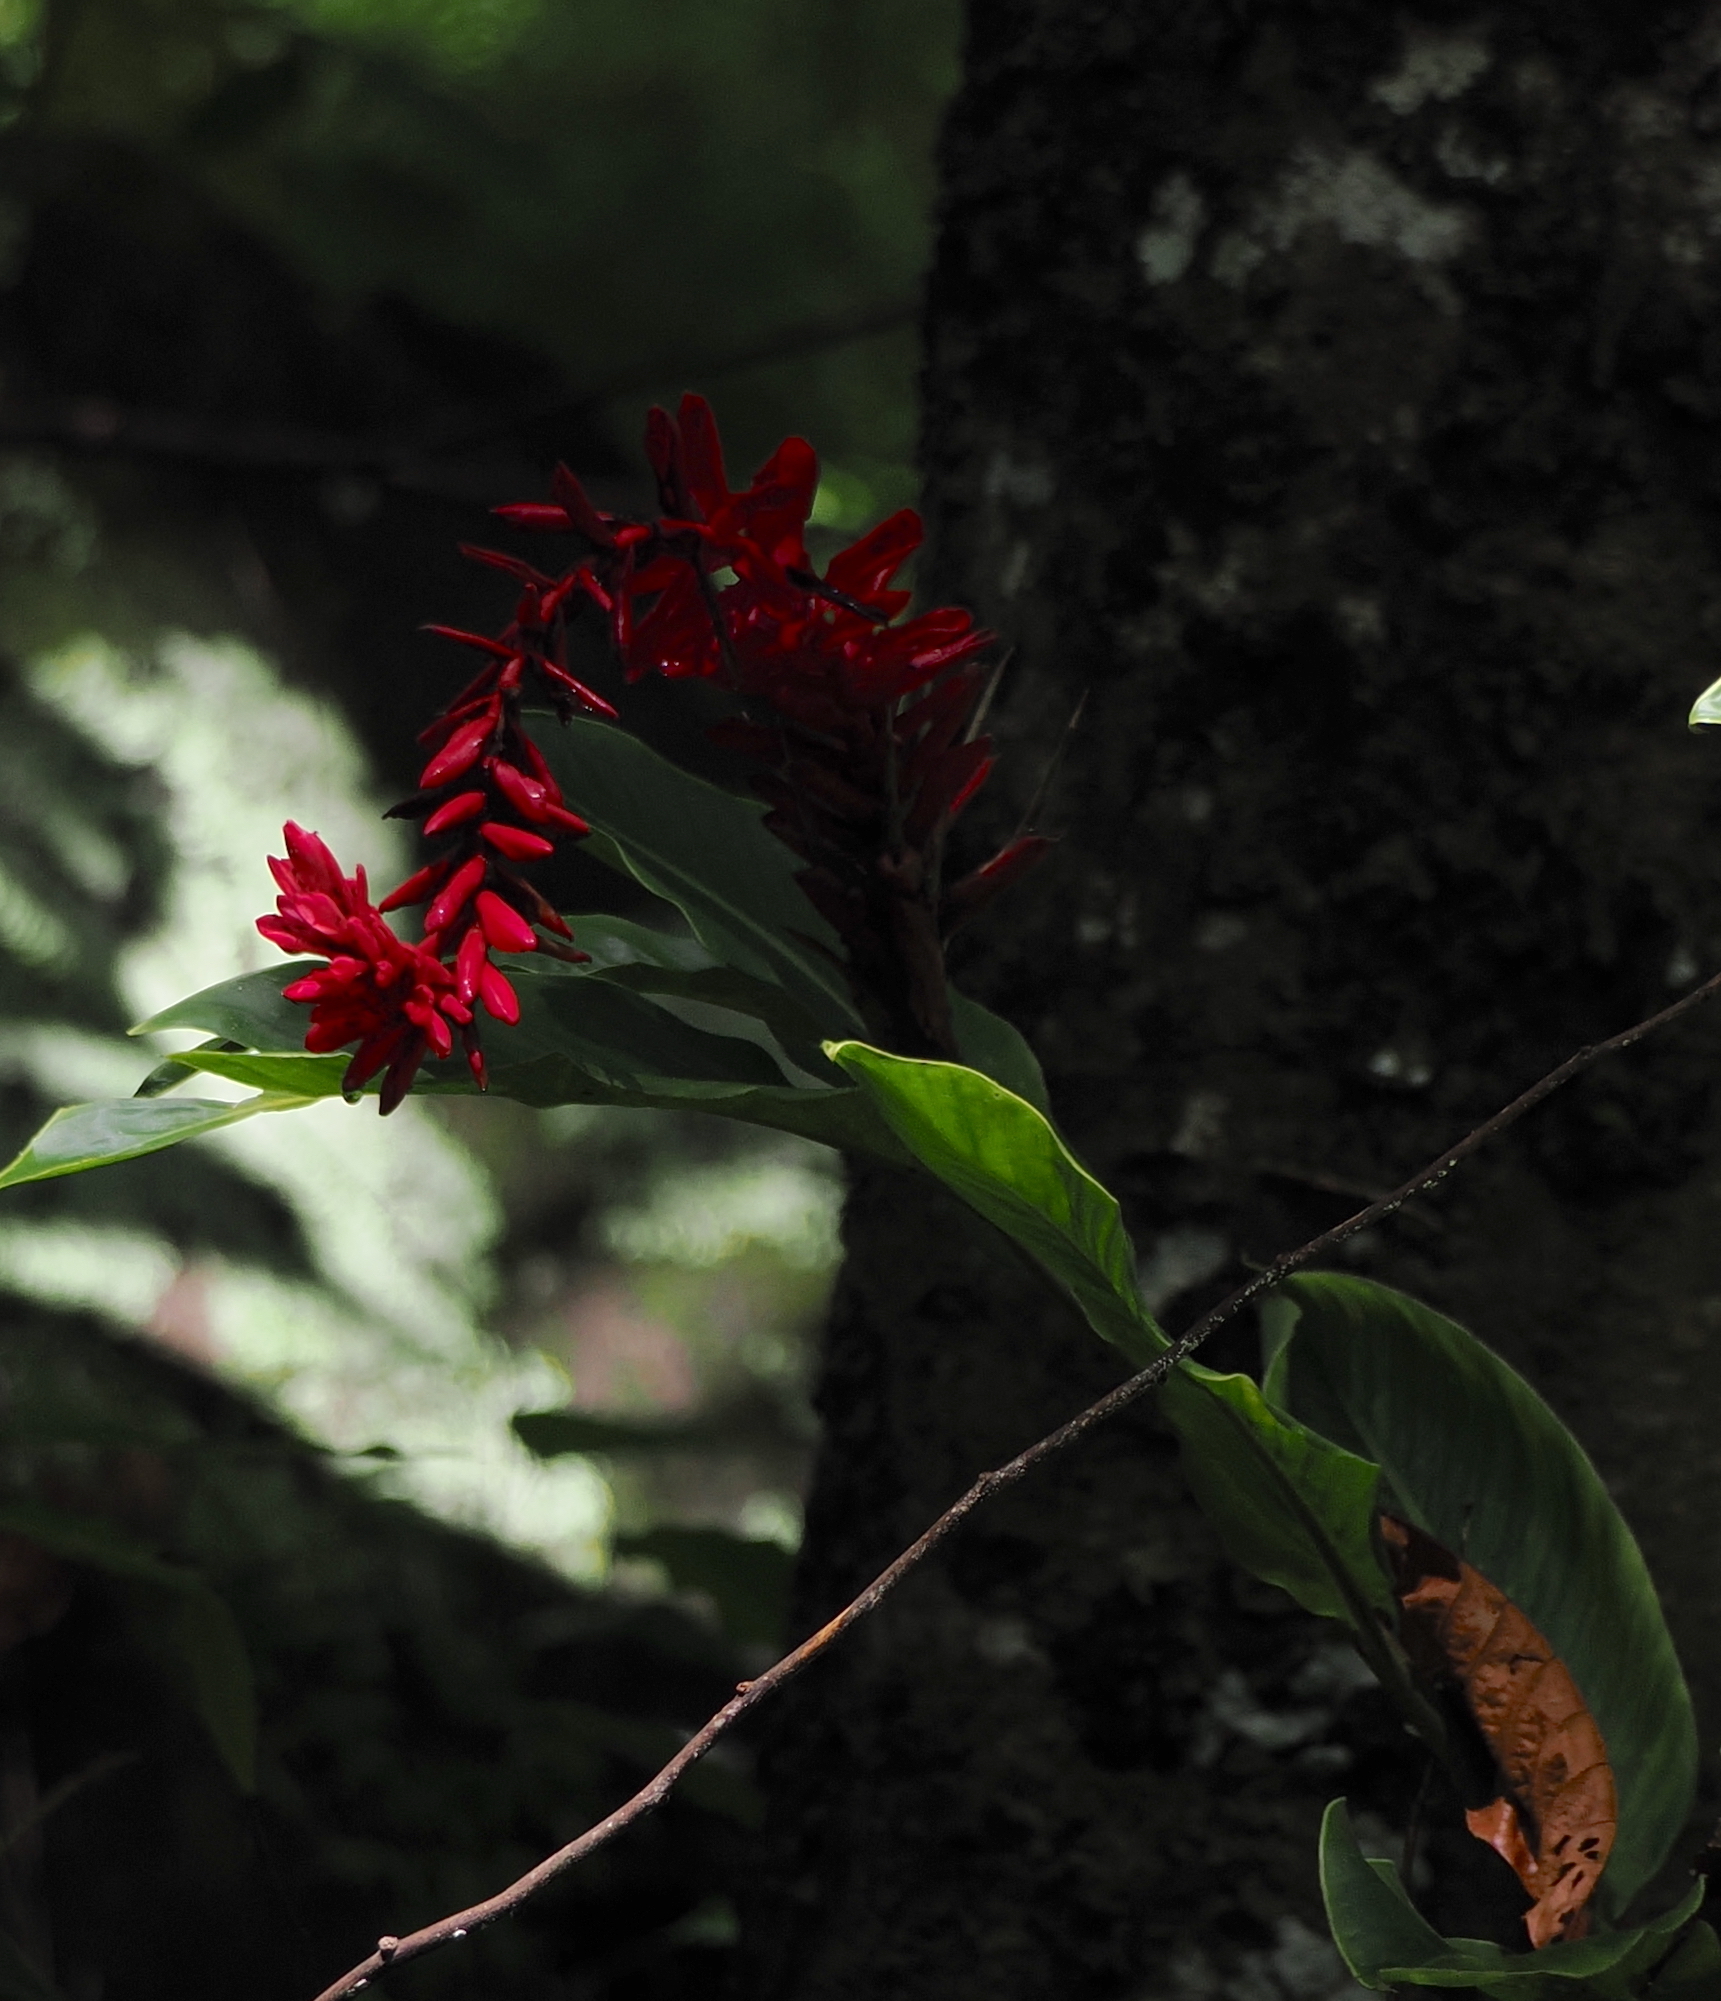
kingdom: Plantae
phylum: Tracheophyta
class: Liliopsida
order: Zingiberales
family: Zingiberaceae
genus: Alpinia
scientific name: Alpinia purpurata
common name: Red ginger
